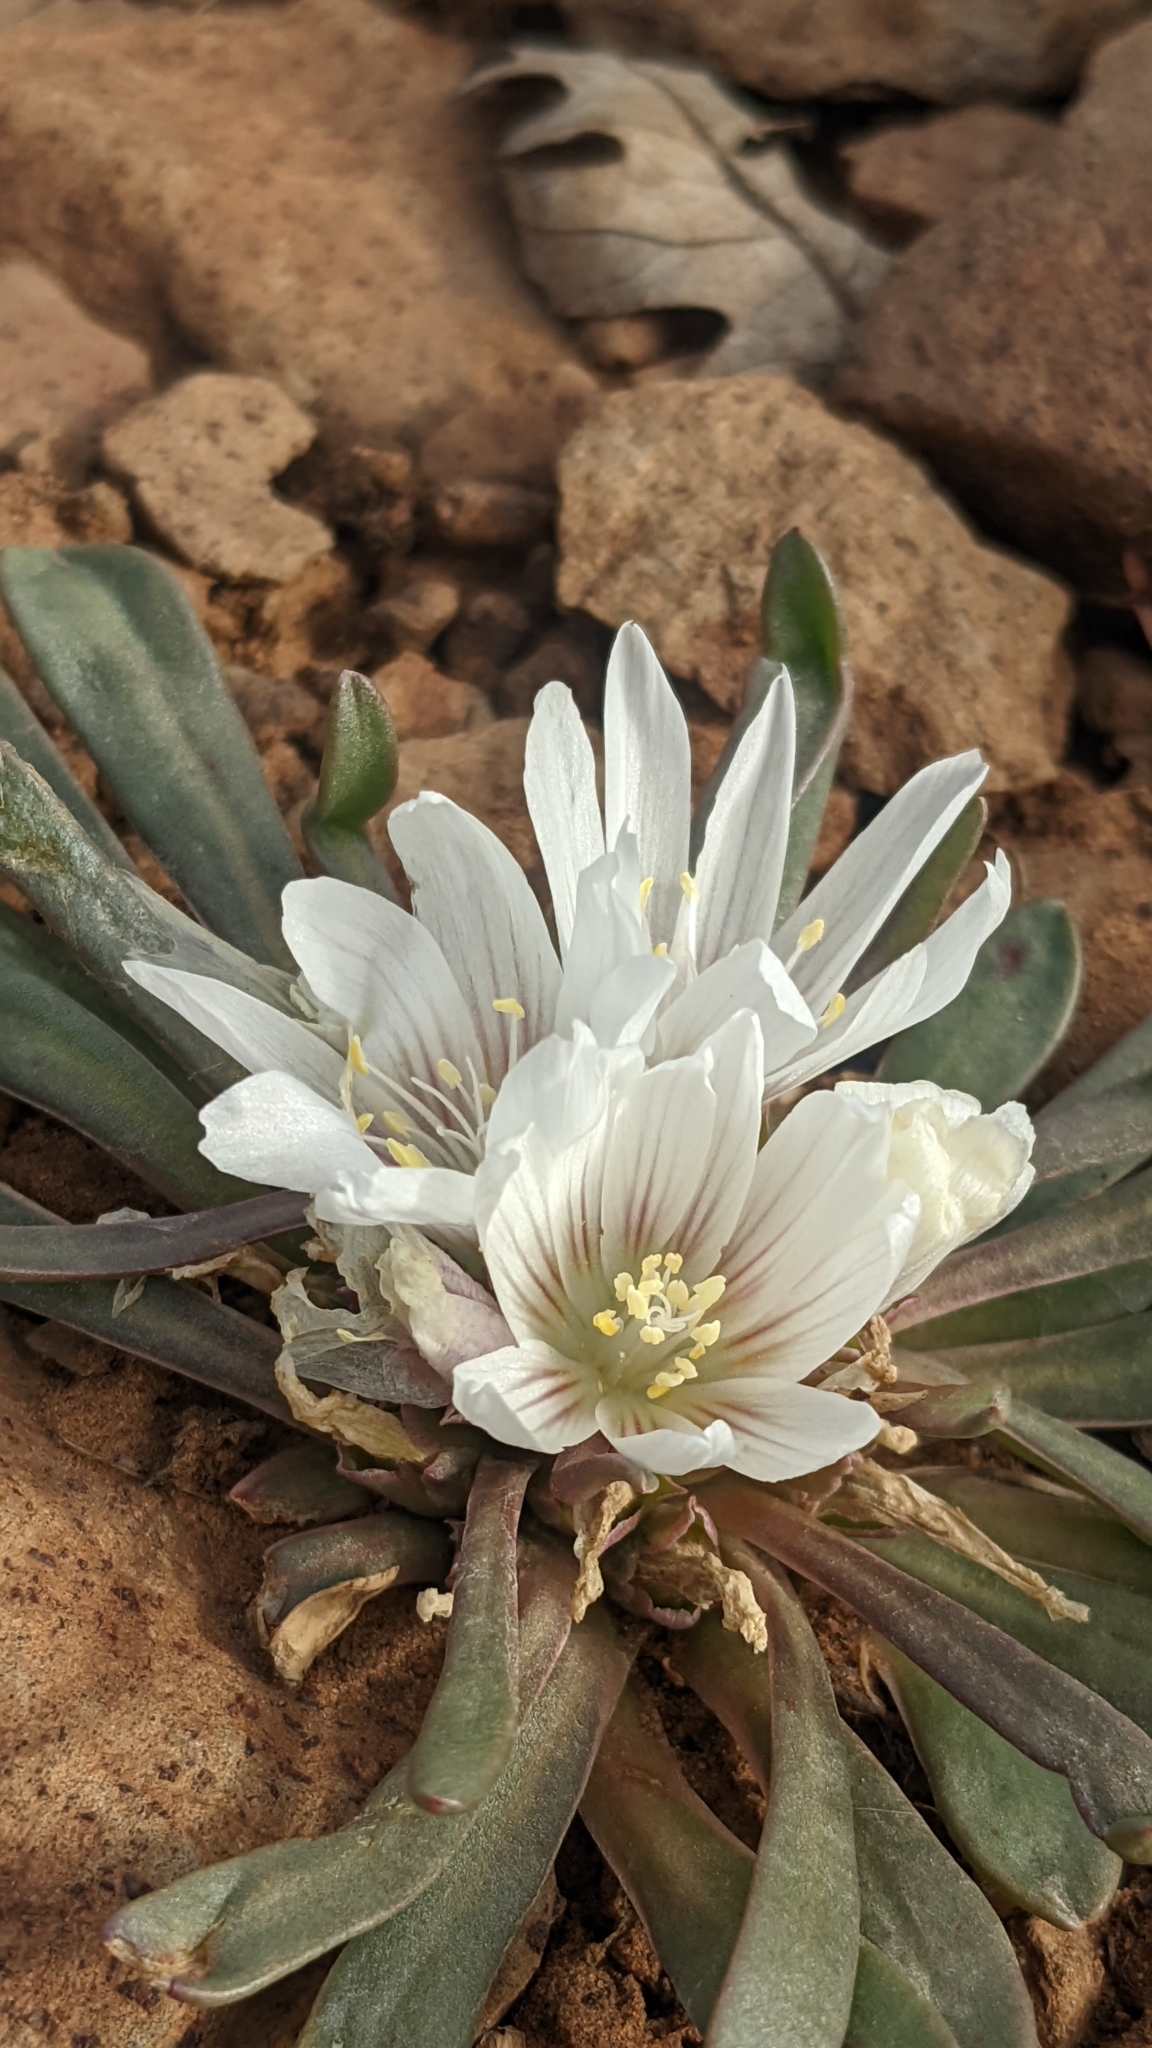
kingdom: Plantae
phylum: Tracheophyta
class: Magnoliopsida
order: Caryophyllales
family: Montiaceae
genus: Lewisia
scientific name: Lewisia brachycalyx
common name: Short-sepal lewisia
